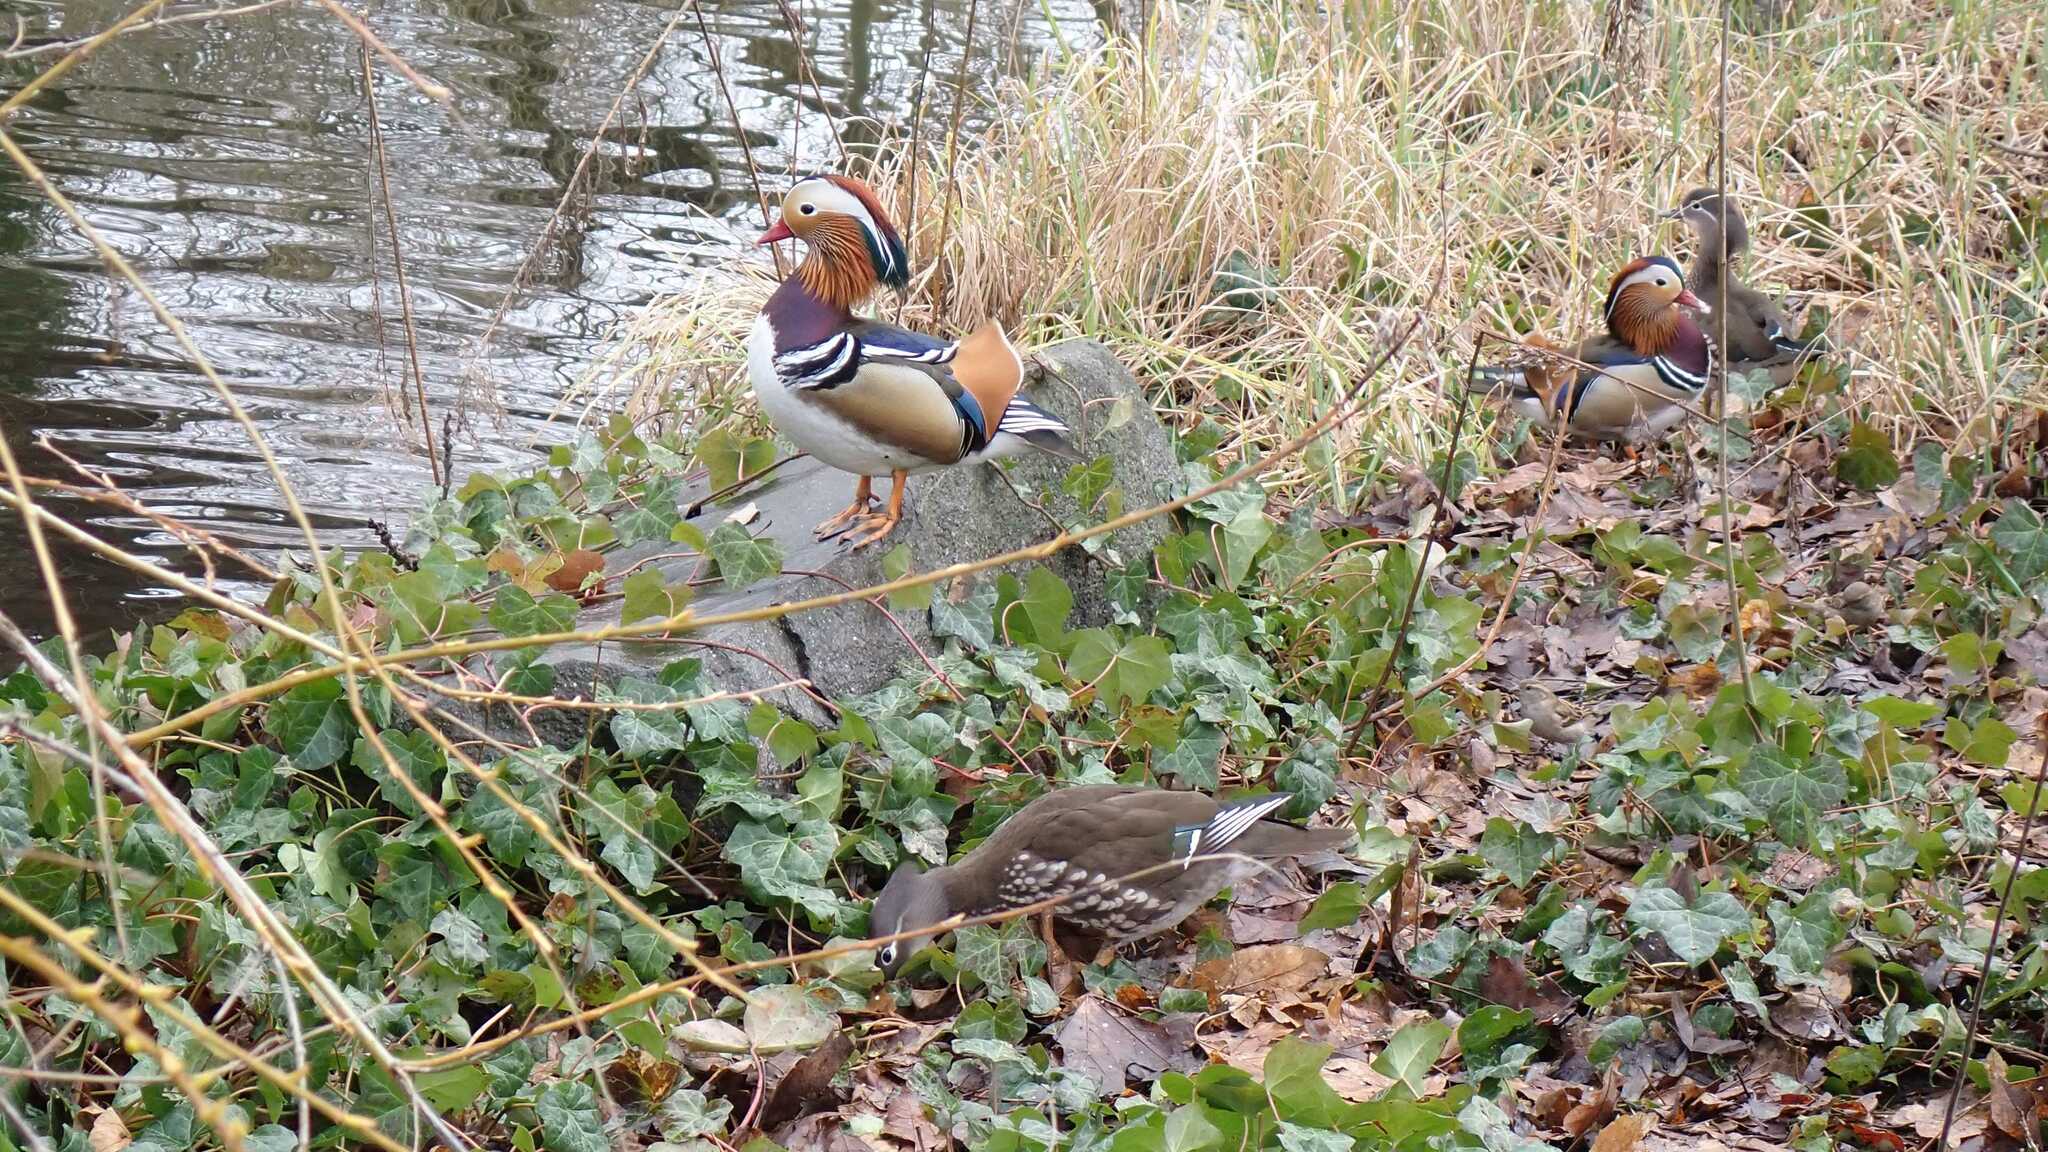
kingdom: Animalia
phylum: Chordata
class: Aves
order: Anseriformes
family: Anatidae
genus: Aix
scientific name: Aix galericulata
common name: Mandarin duck
